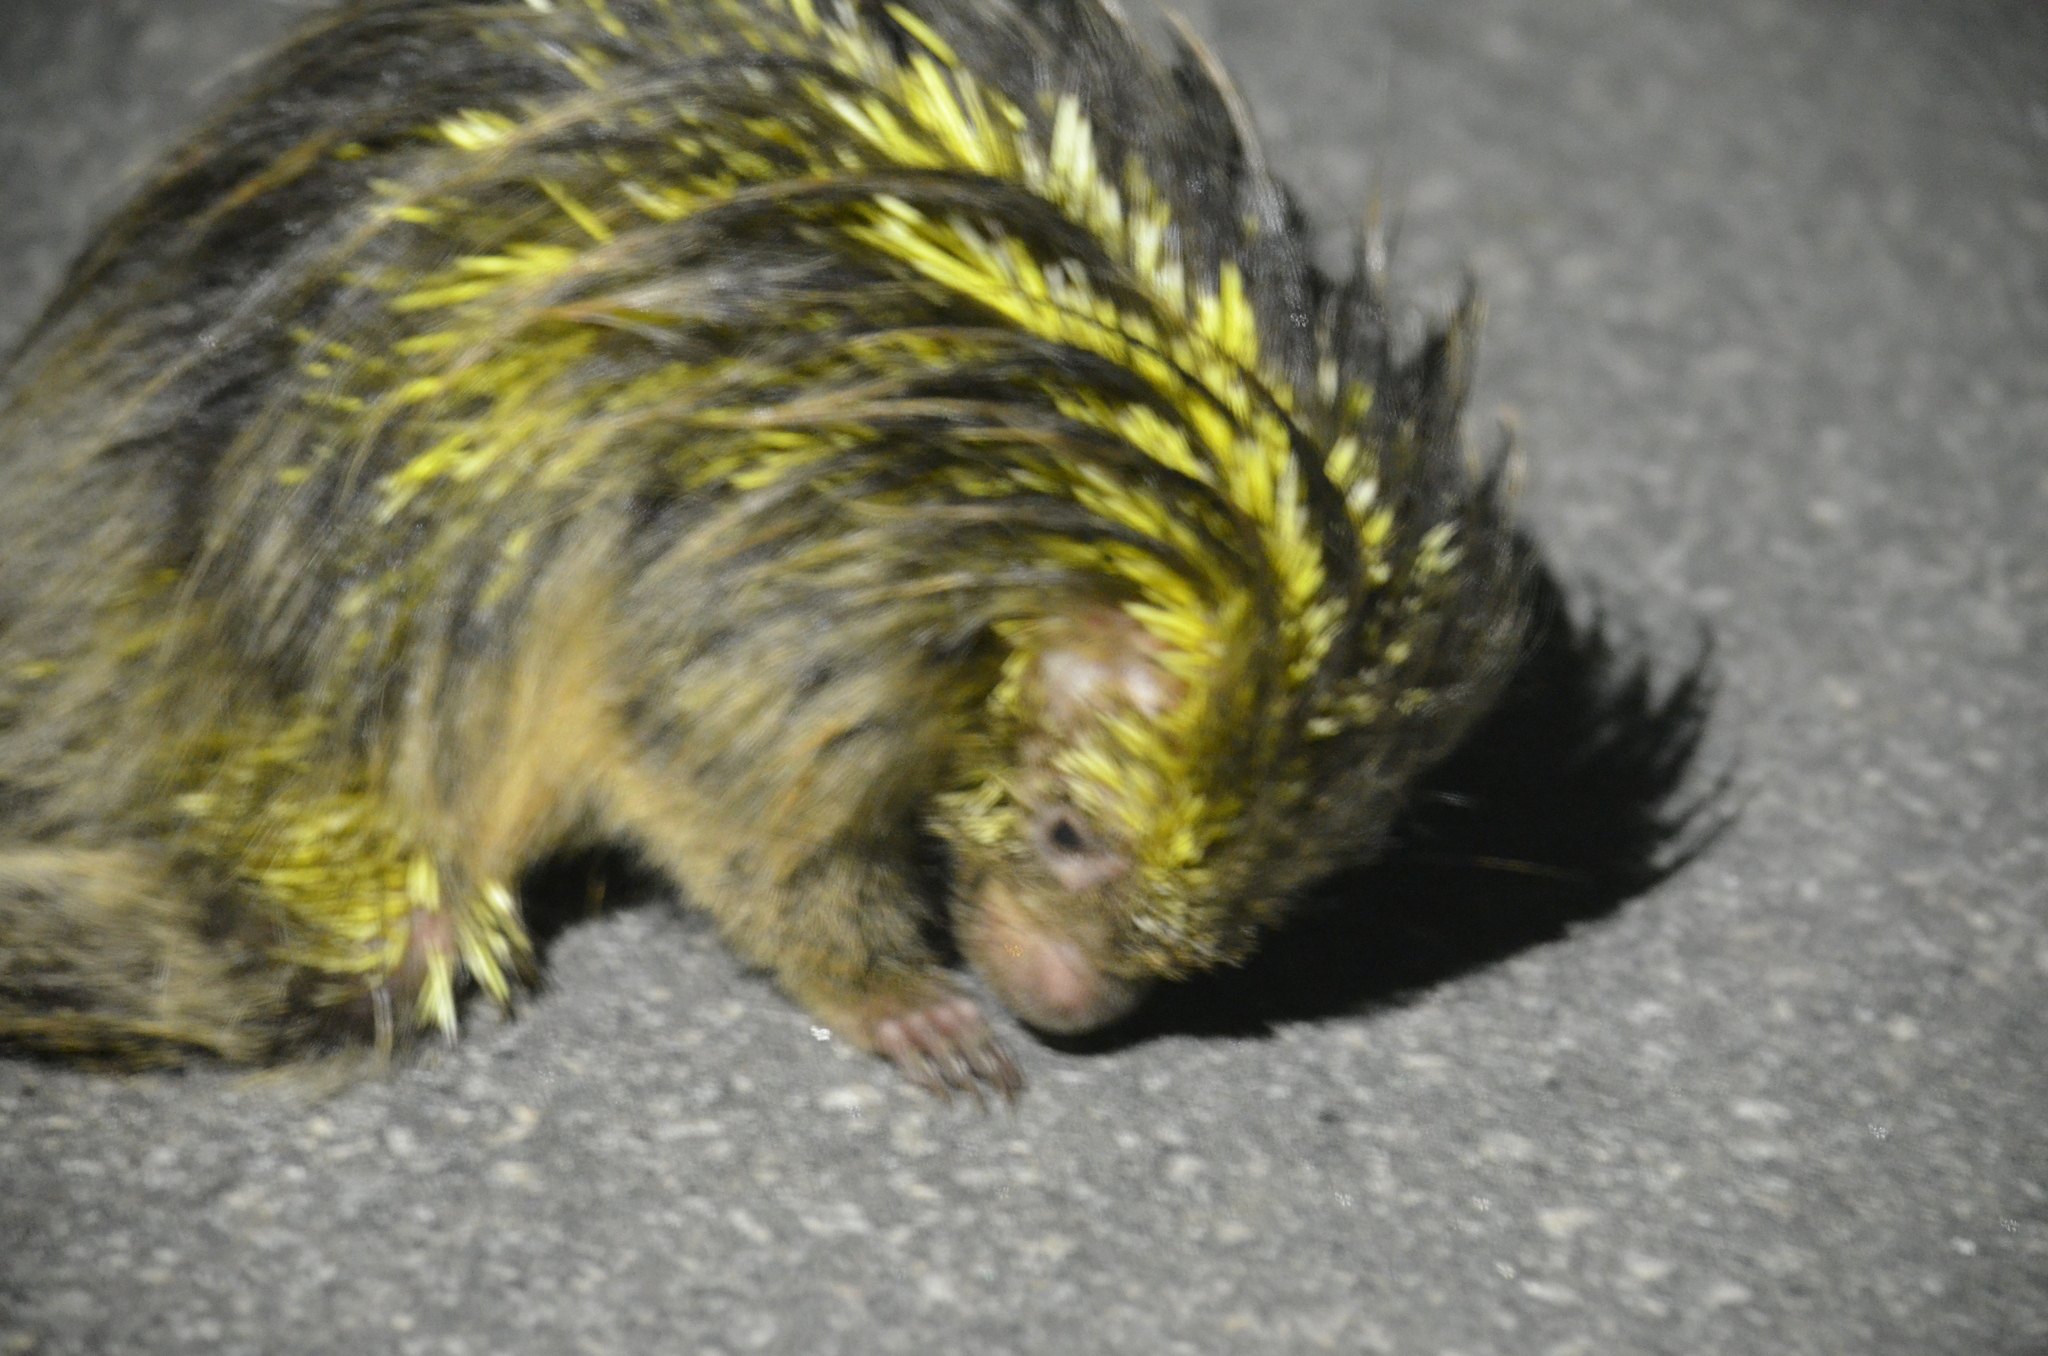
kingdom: Animalia
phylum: Chordata
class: Mammalia
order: Rodentia
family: Erethizontidae
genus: Sphiggurus
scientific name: Sphiggurus spinosus
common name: Paraguaian hairy dwarf porcupine
